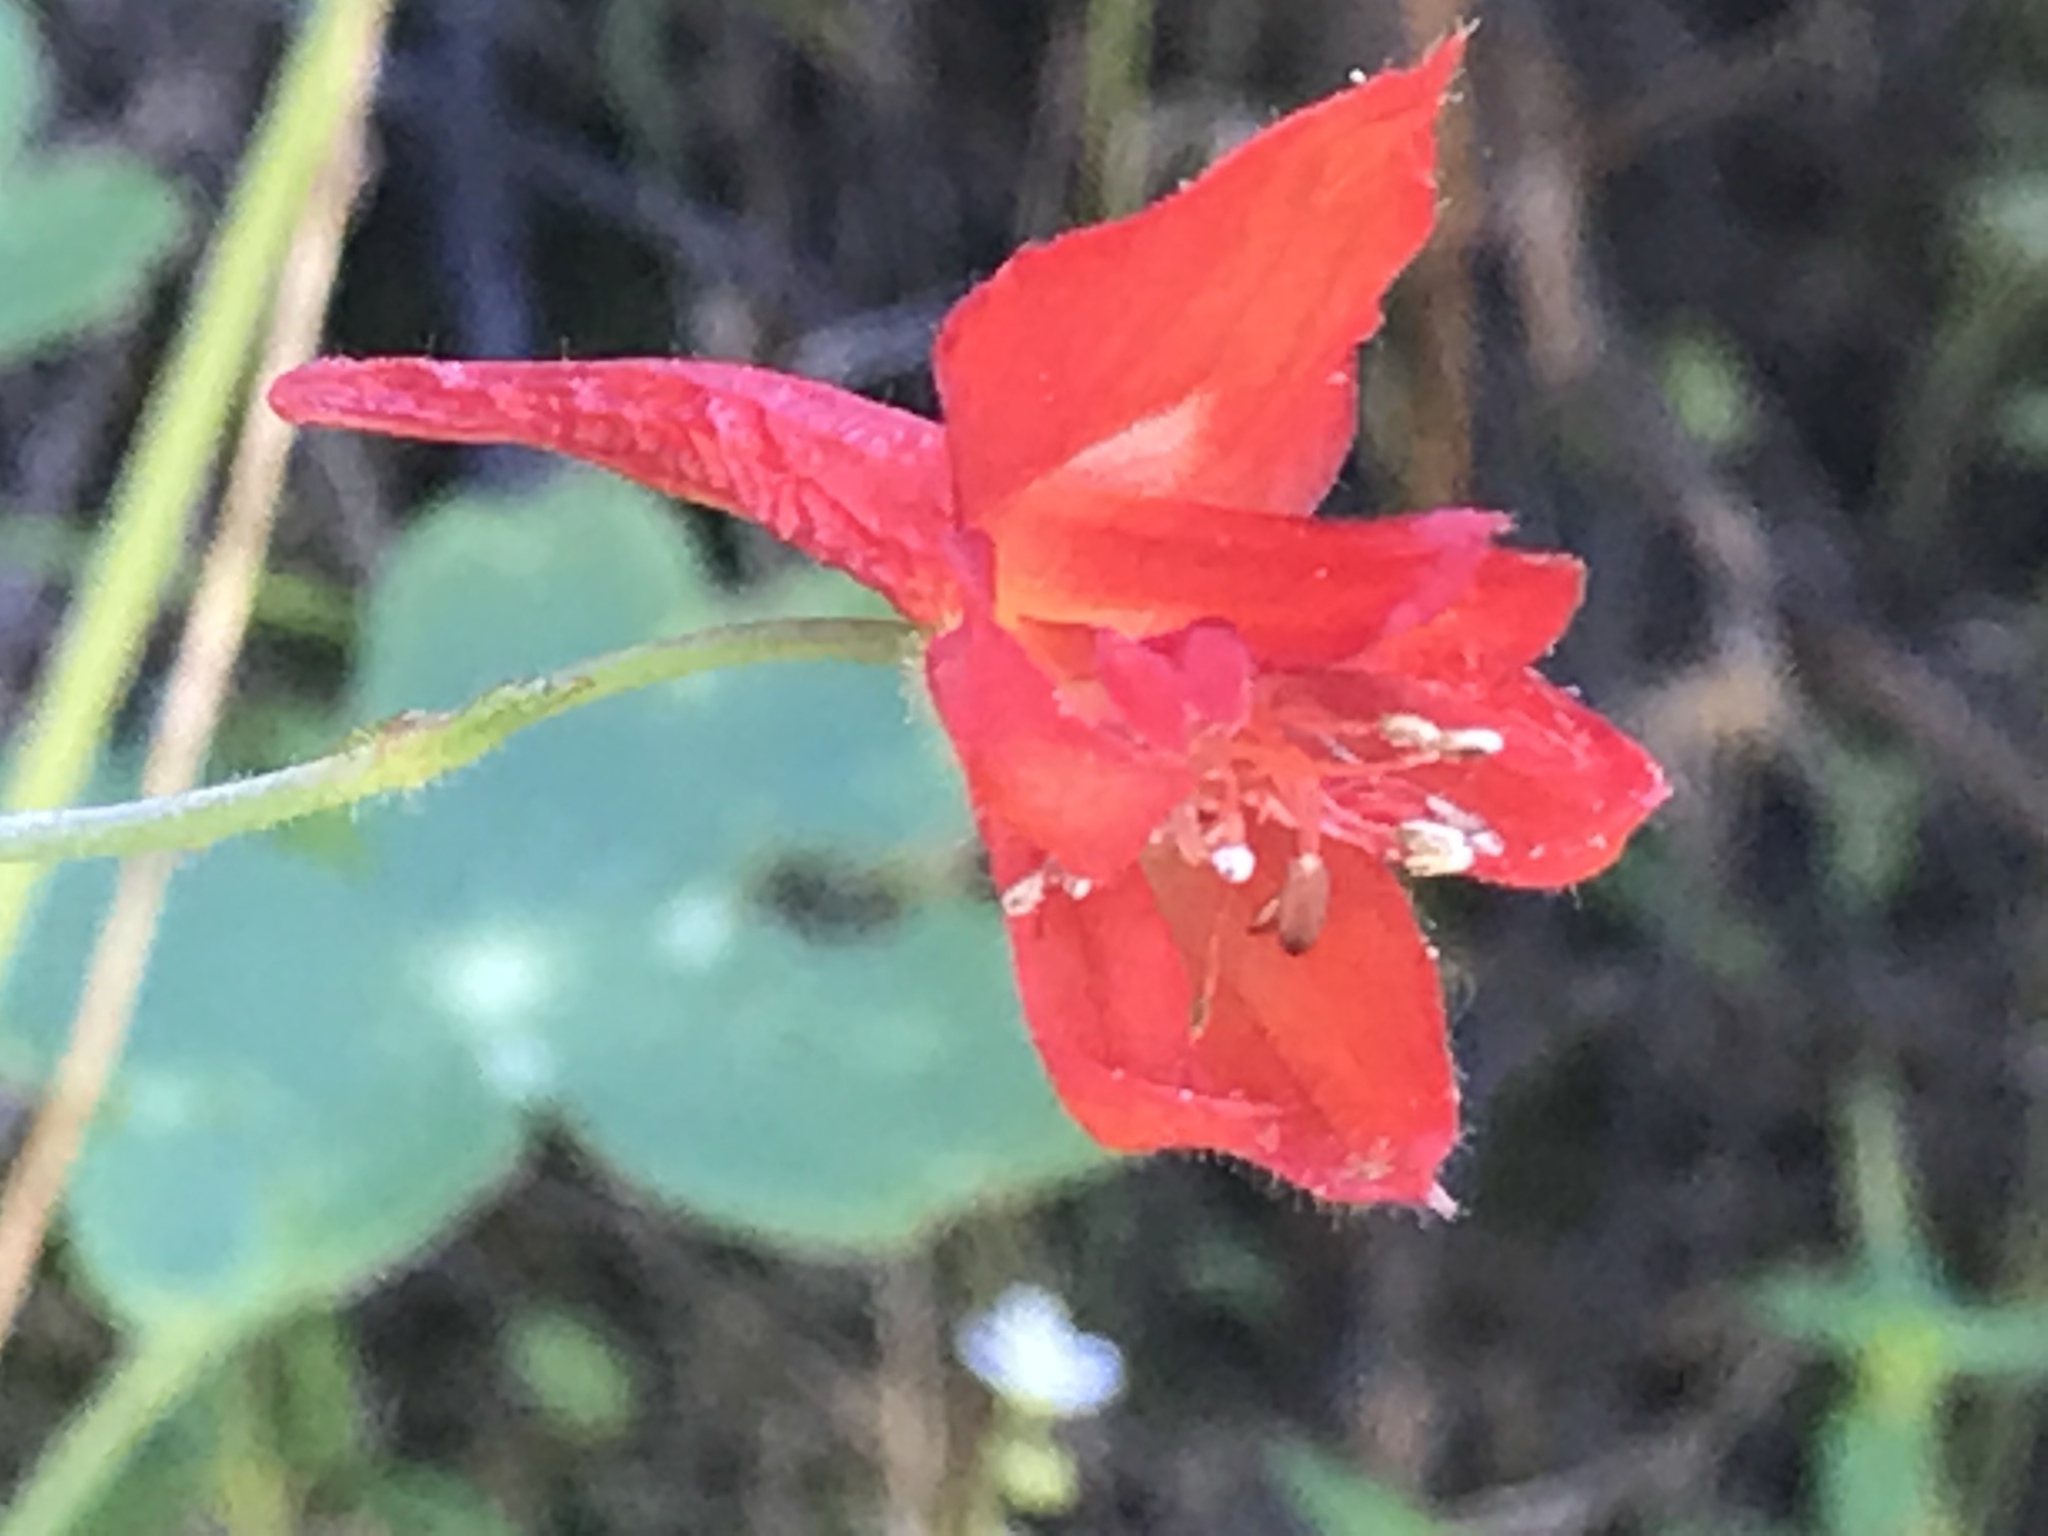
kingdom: Plantae
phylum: Tracheophyta
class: Magnoliopsida
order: Ranunculales
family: Ranunculaceae
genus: Delphinium
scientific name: Delphinium nudicaule
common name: Red larkspur
